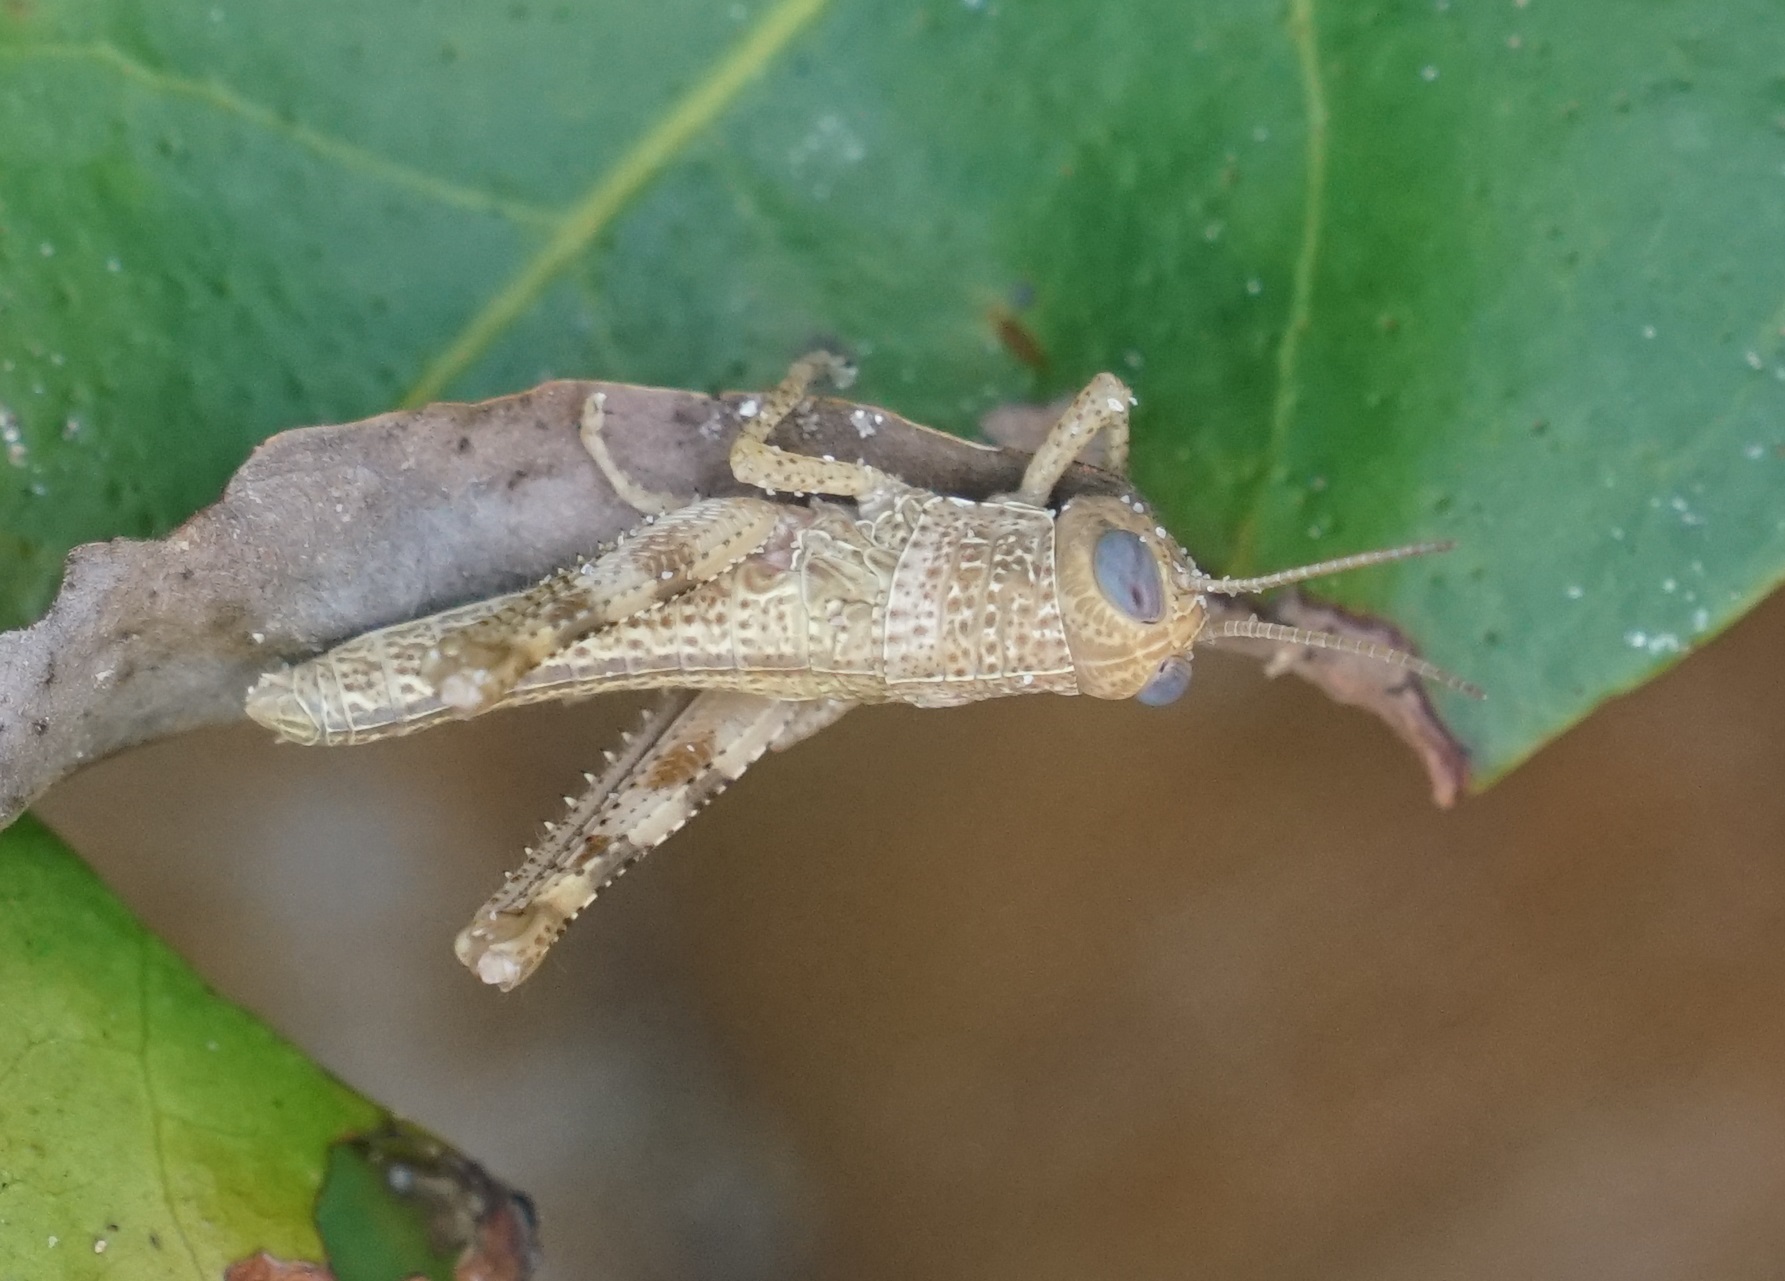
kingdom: Animalia
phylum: Arthropoda
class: Insecta
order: Orthoptera
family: Acrididae
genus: Valanga
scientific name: Valanga irregularis
